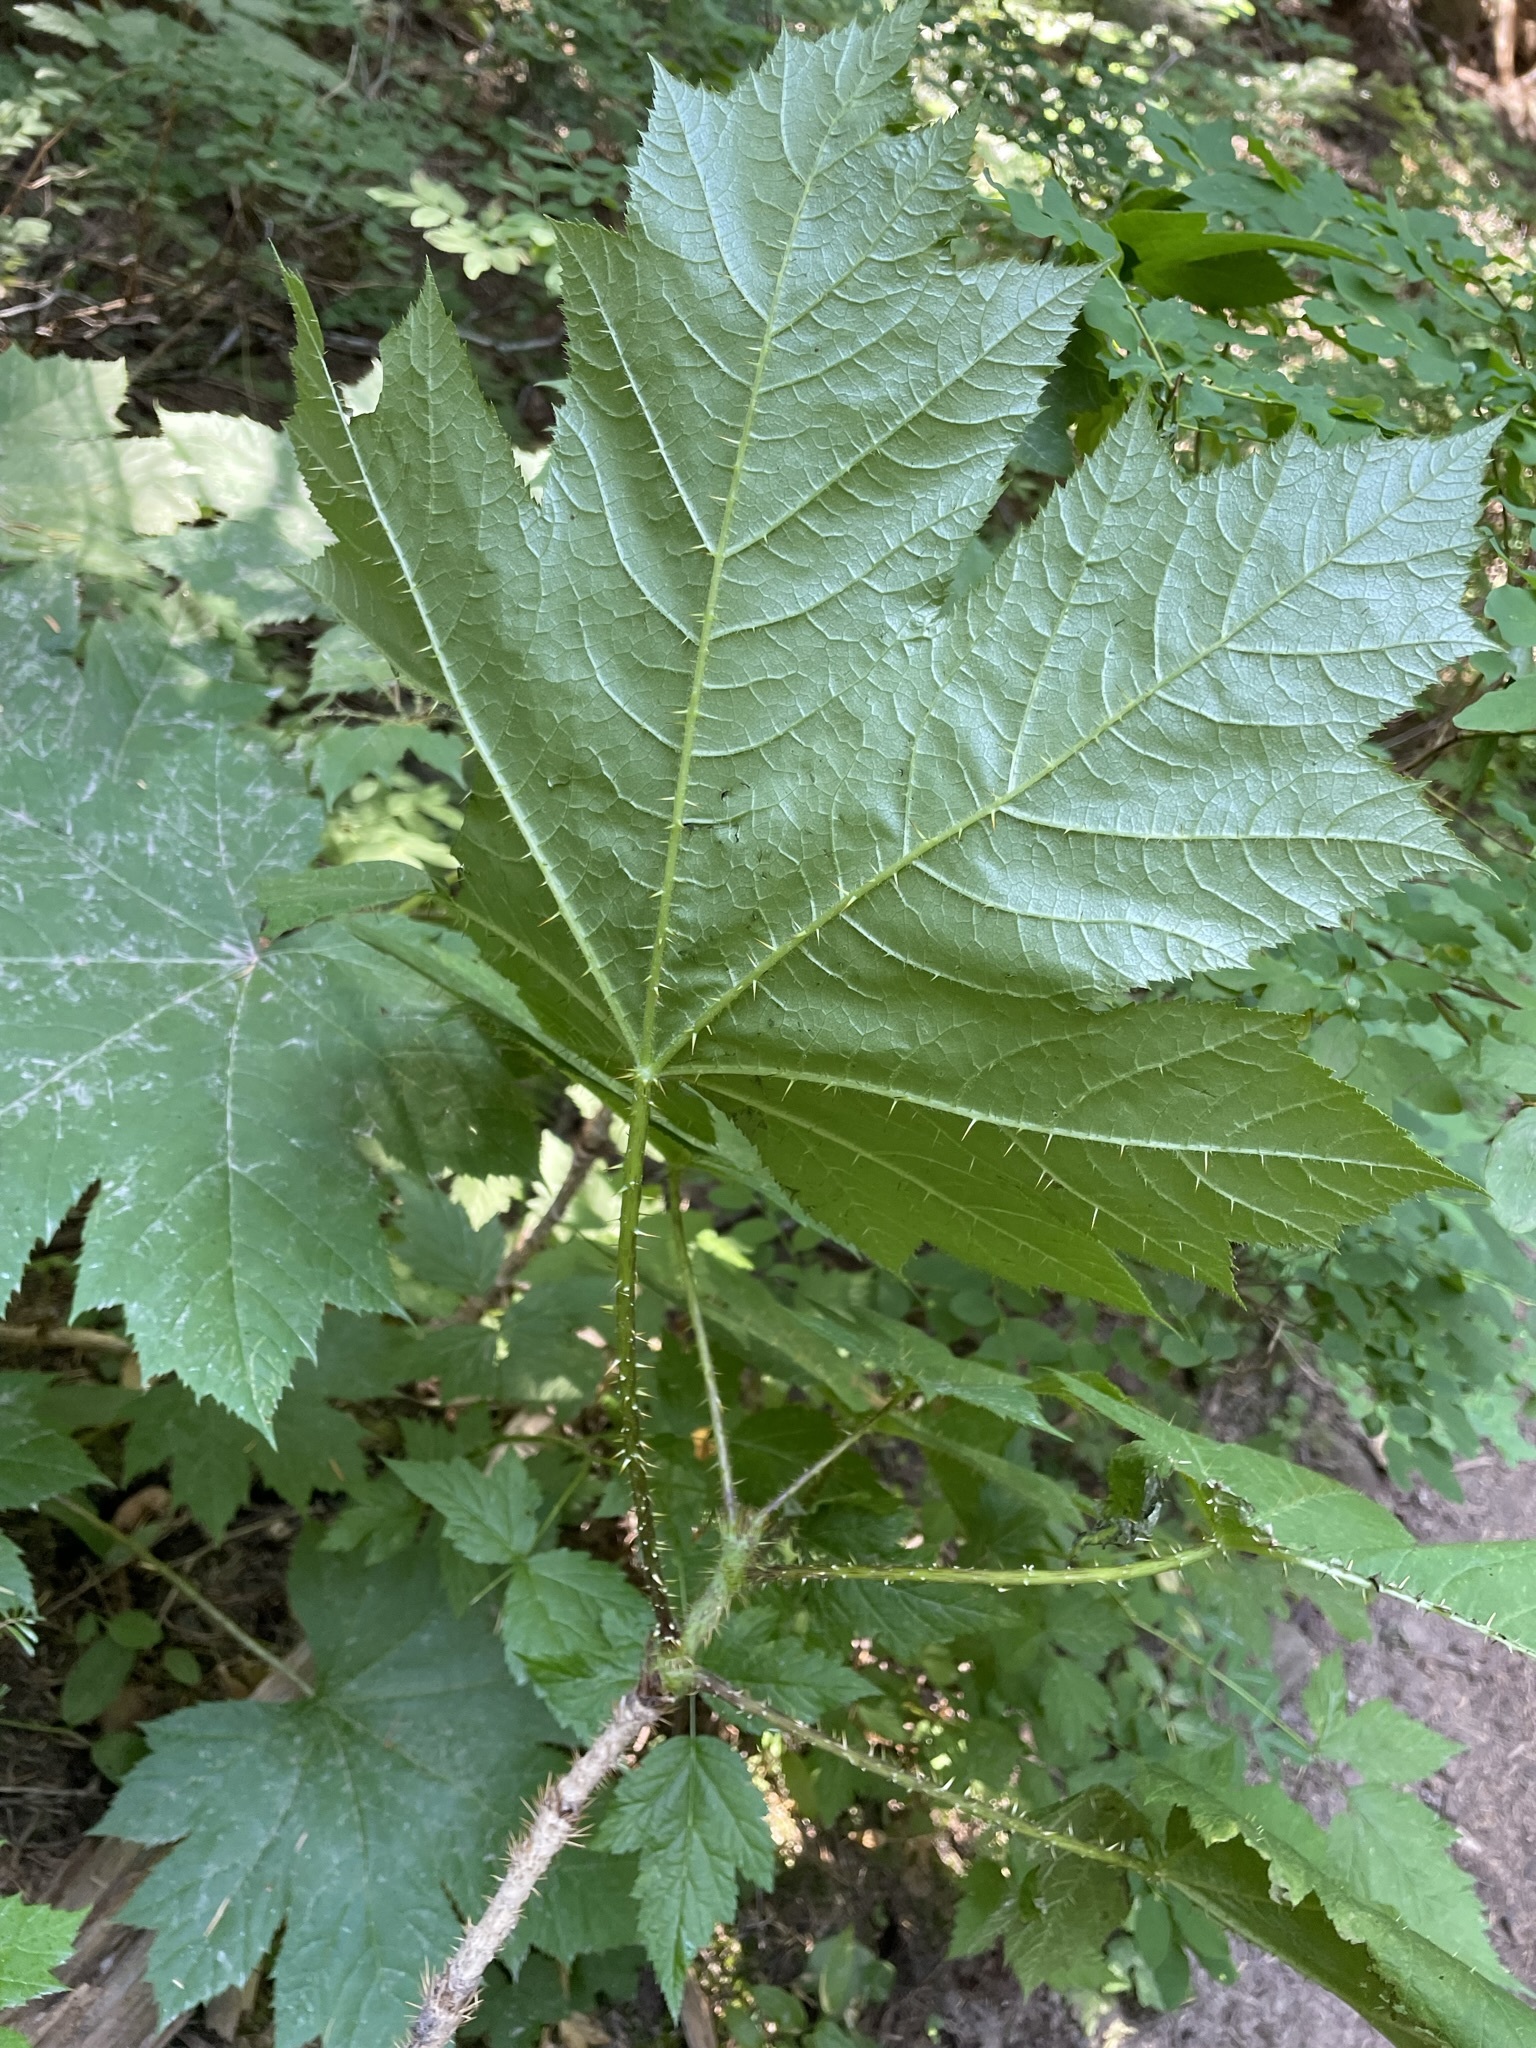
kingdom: Plantae
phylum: Tracheophyta
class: Magnoliopsida
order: Apiales
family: Araliaceae
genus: Oplopanax
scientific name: Oplopanax horridus
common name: Devil's walking-stick
